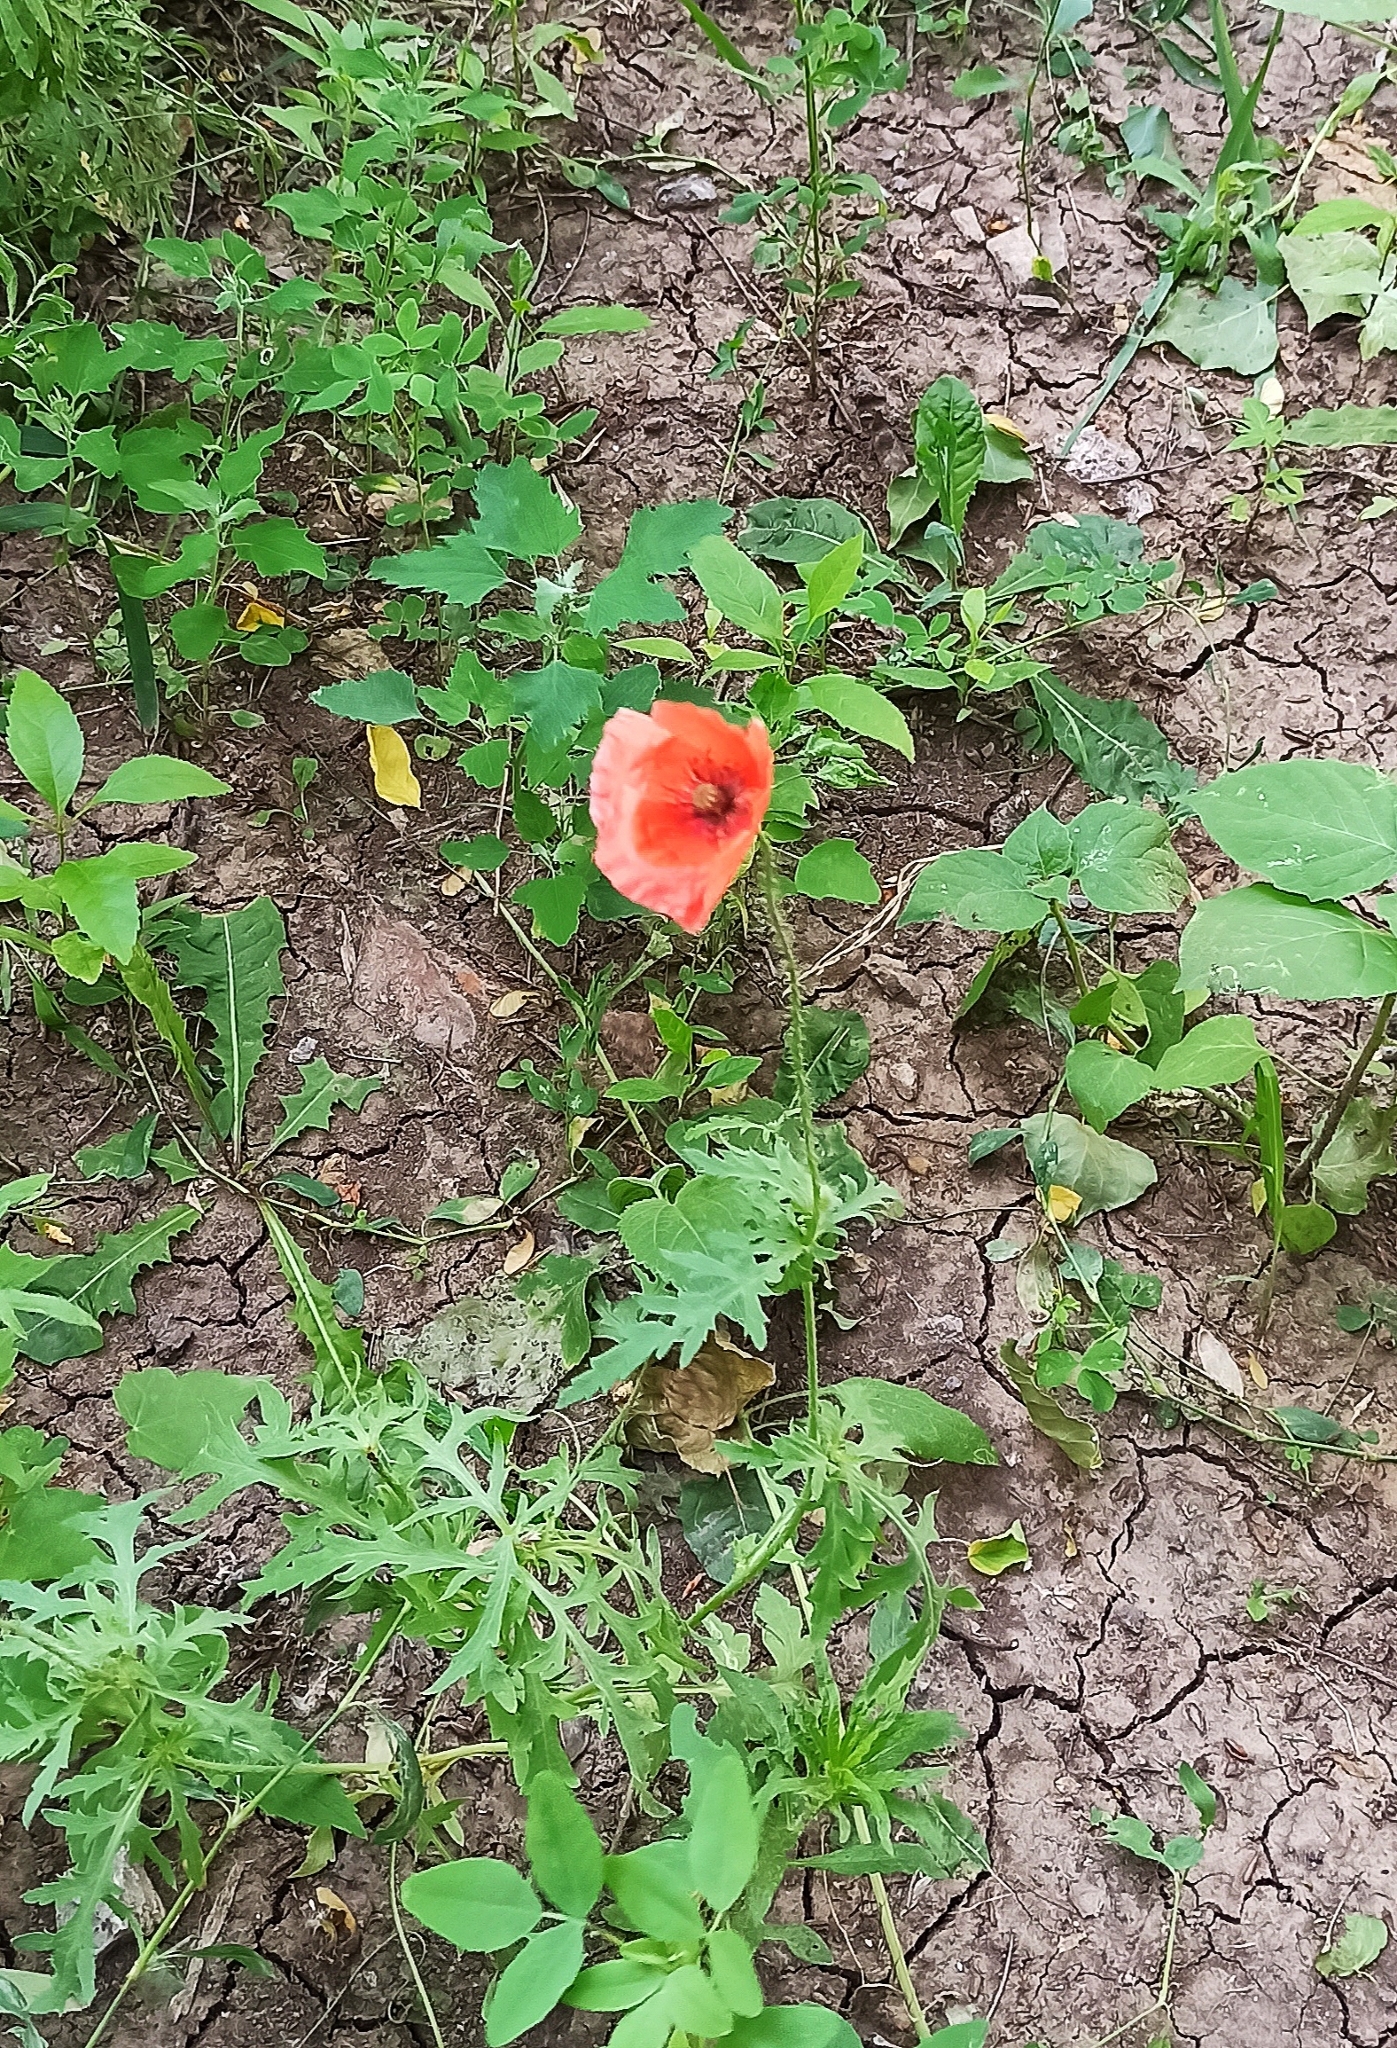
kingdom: Plantae
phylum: Tracheophyta
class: Magnoliopsida
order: Ranunculales
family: Papaveraceae
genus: Papaver
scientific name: Papaver rhoeas
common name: Corn poppy
